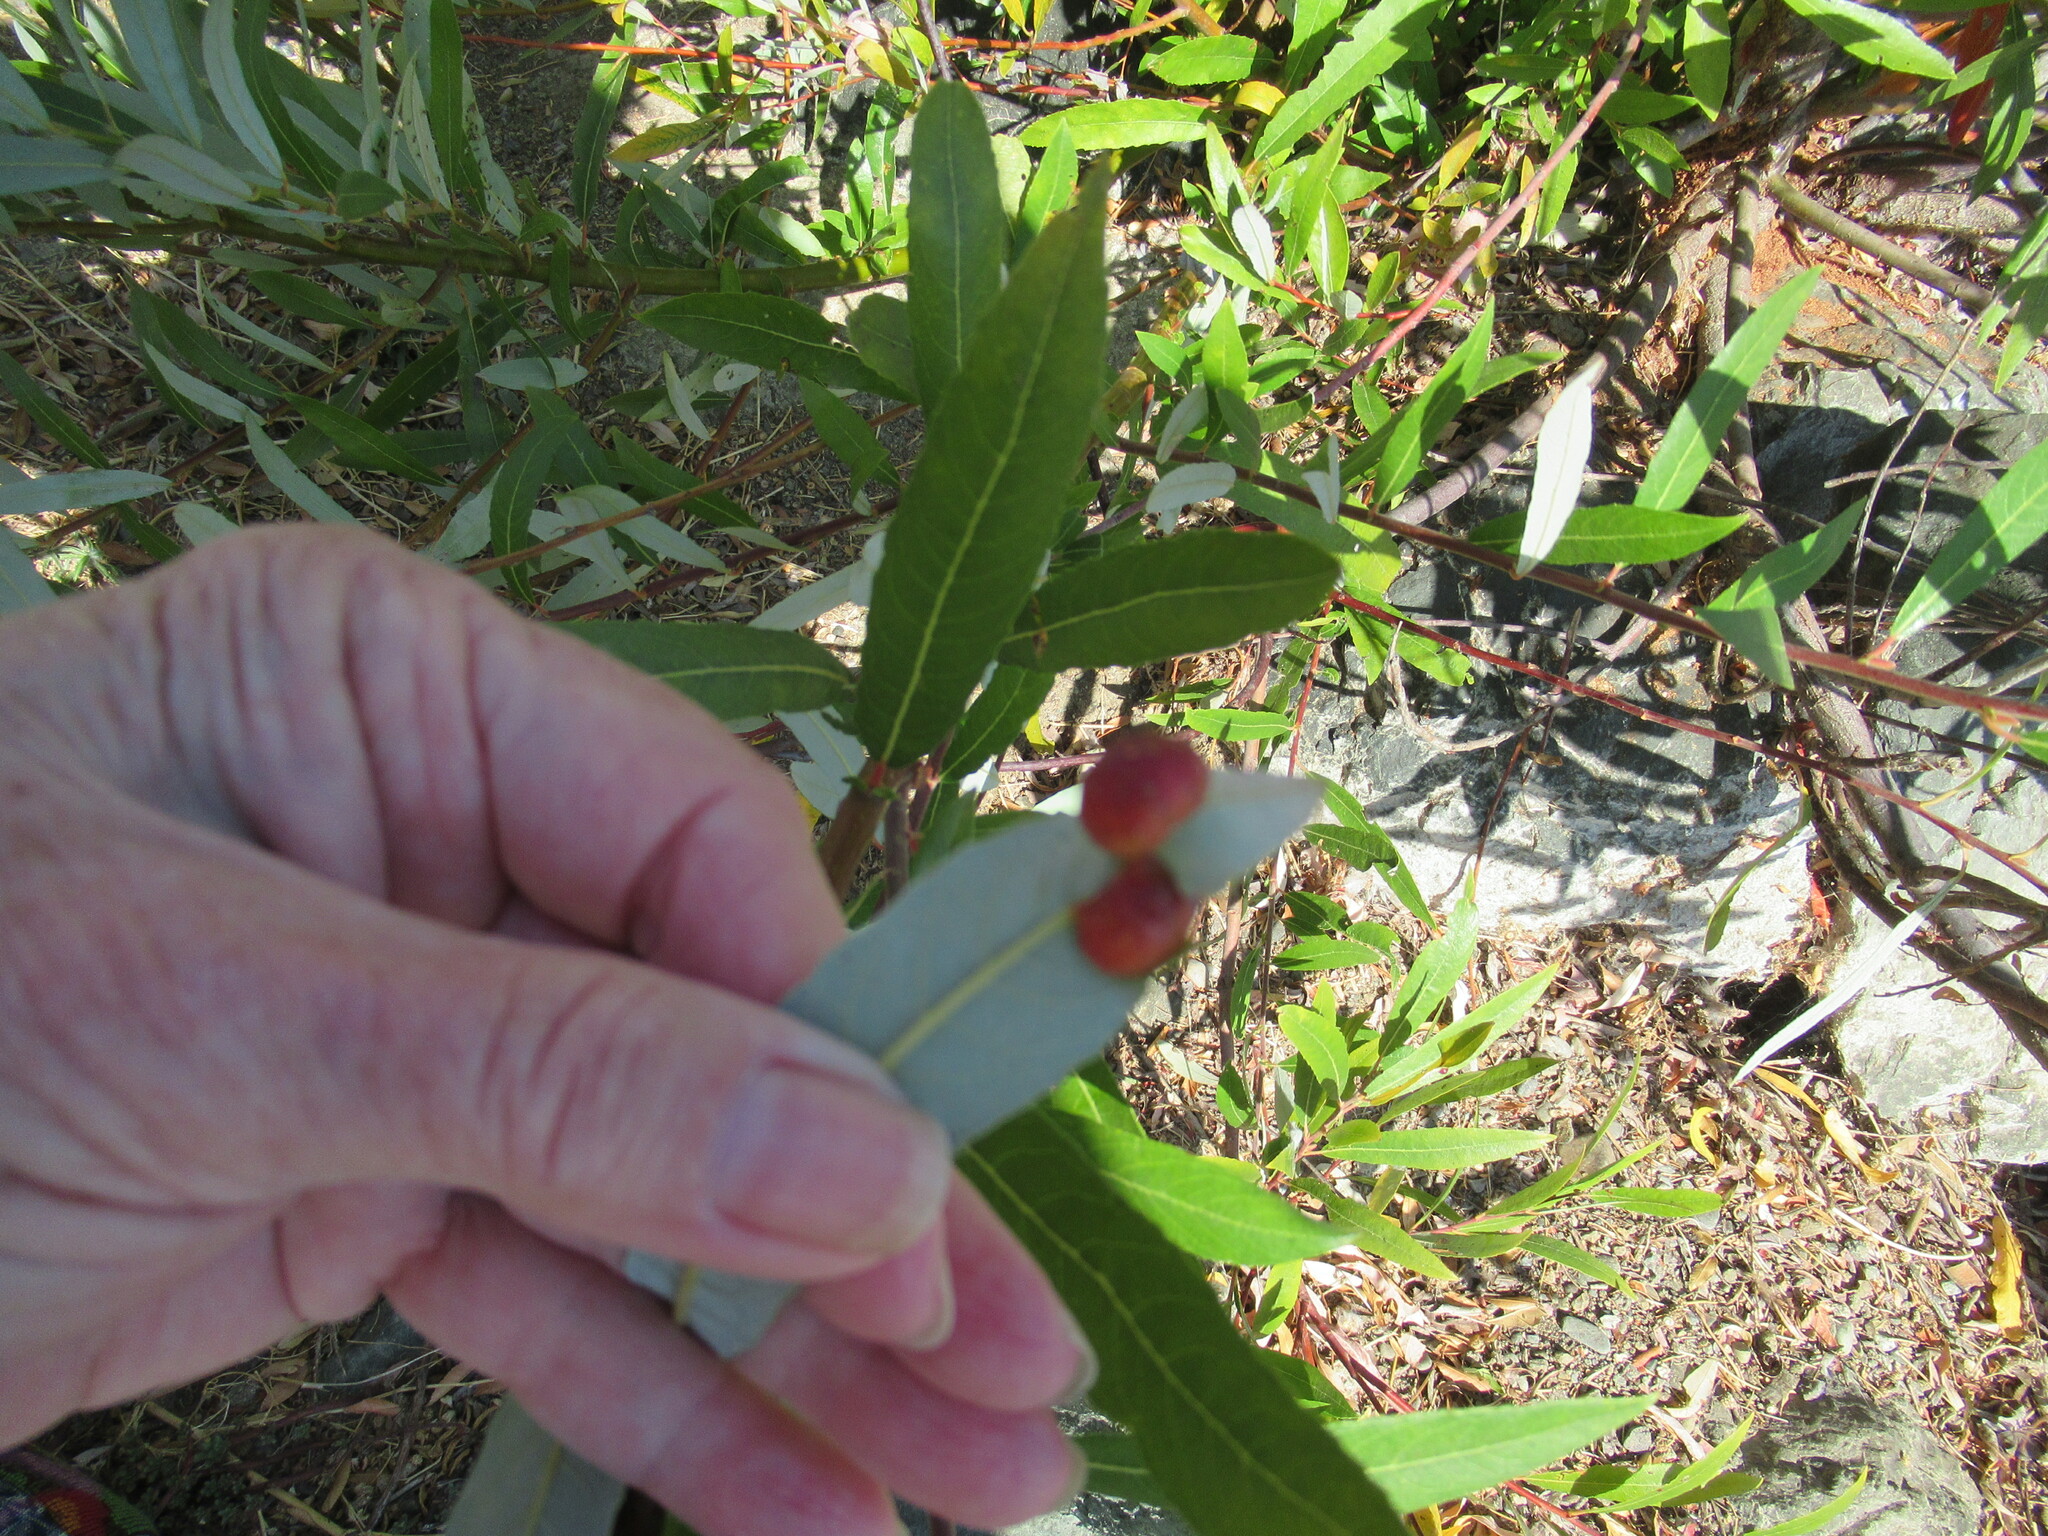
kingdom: Animalia
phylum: Arthropoda
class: Insecta
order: Hymenoptera
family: Tenthredinidae
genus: Euura
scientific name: Euura
